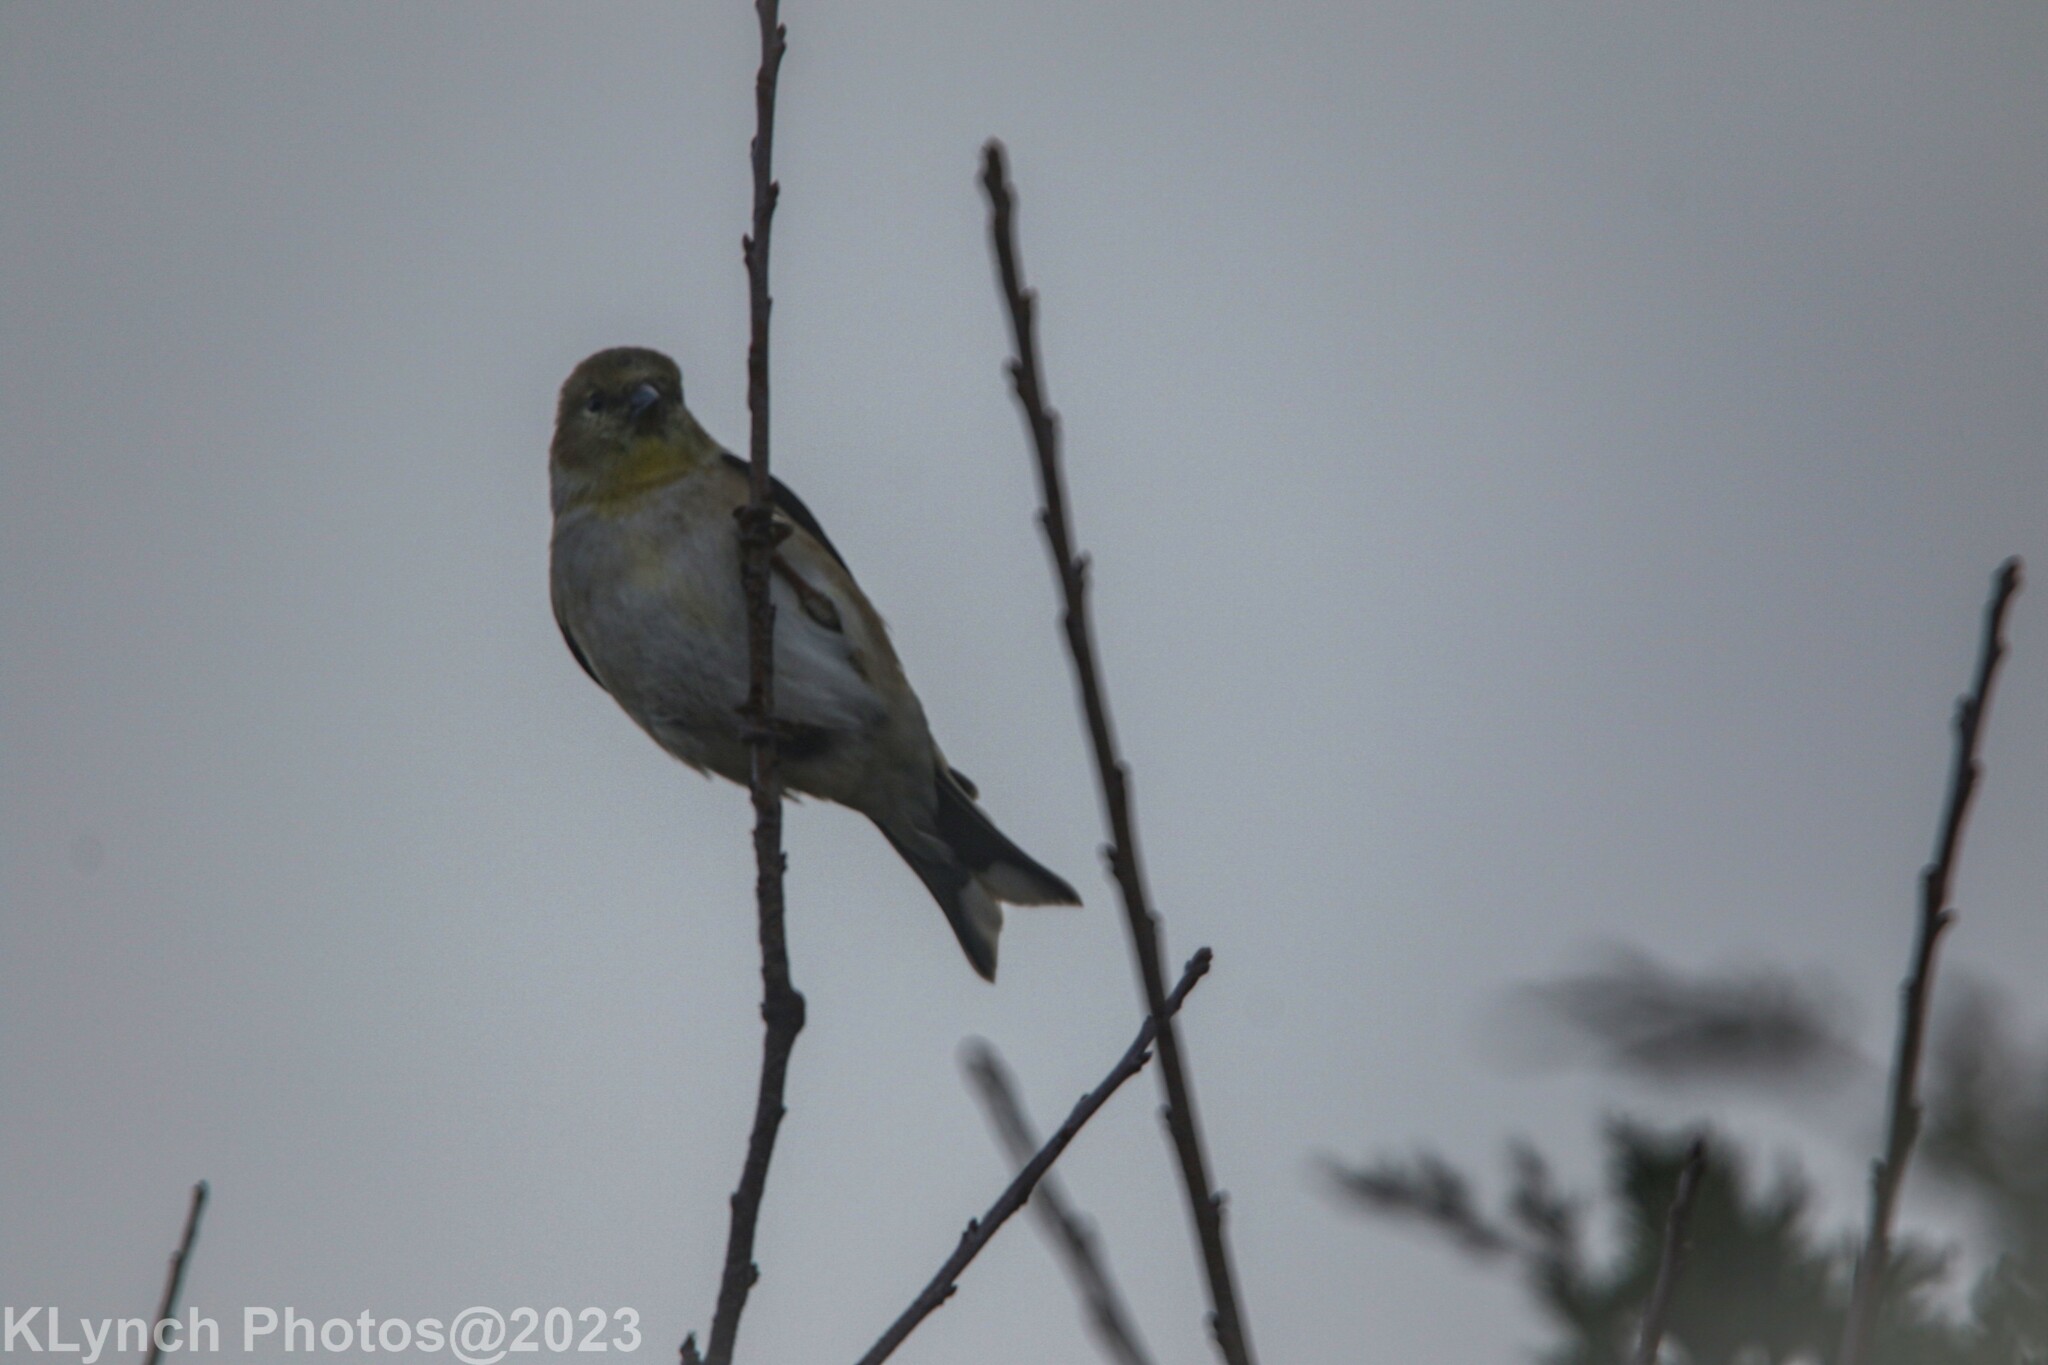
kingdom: Animalia
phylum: Chordata
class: Aves
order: Passeriformes
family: Fringillidae
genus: Spinus
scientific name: Spinus tristis
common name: American goldfinch
